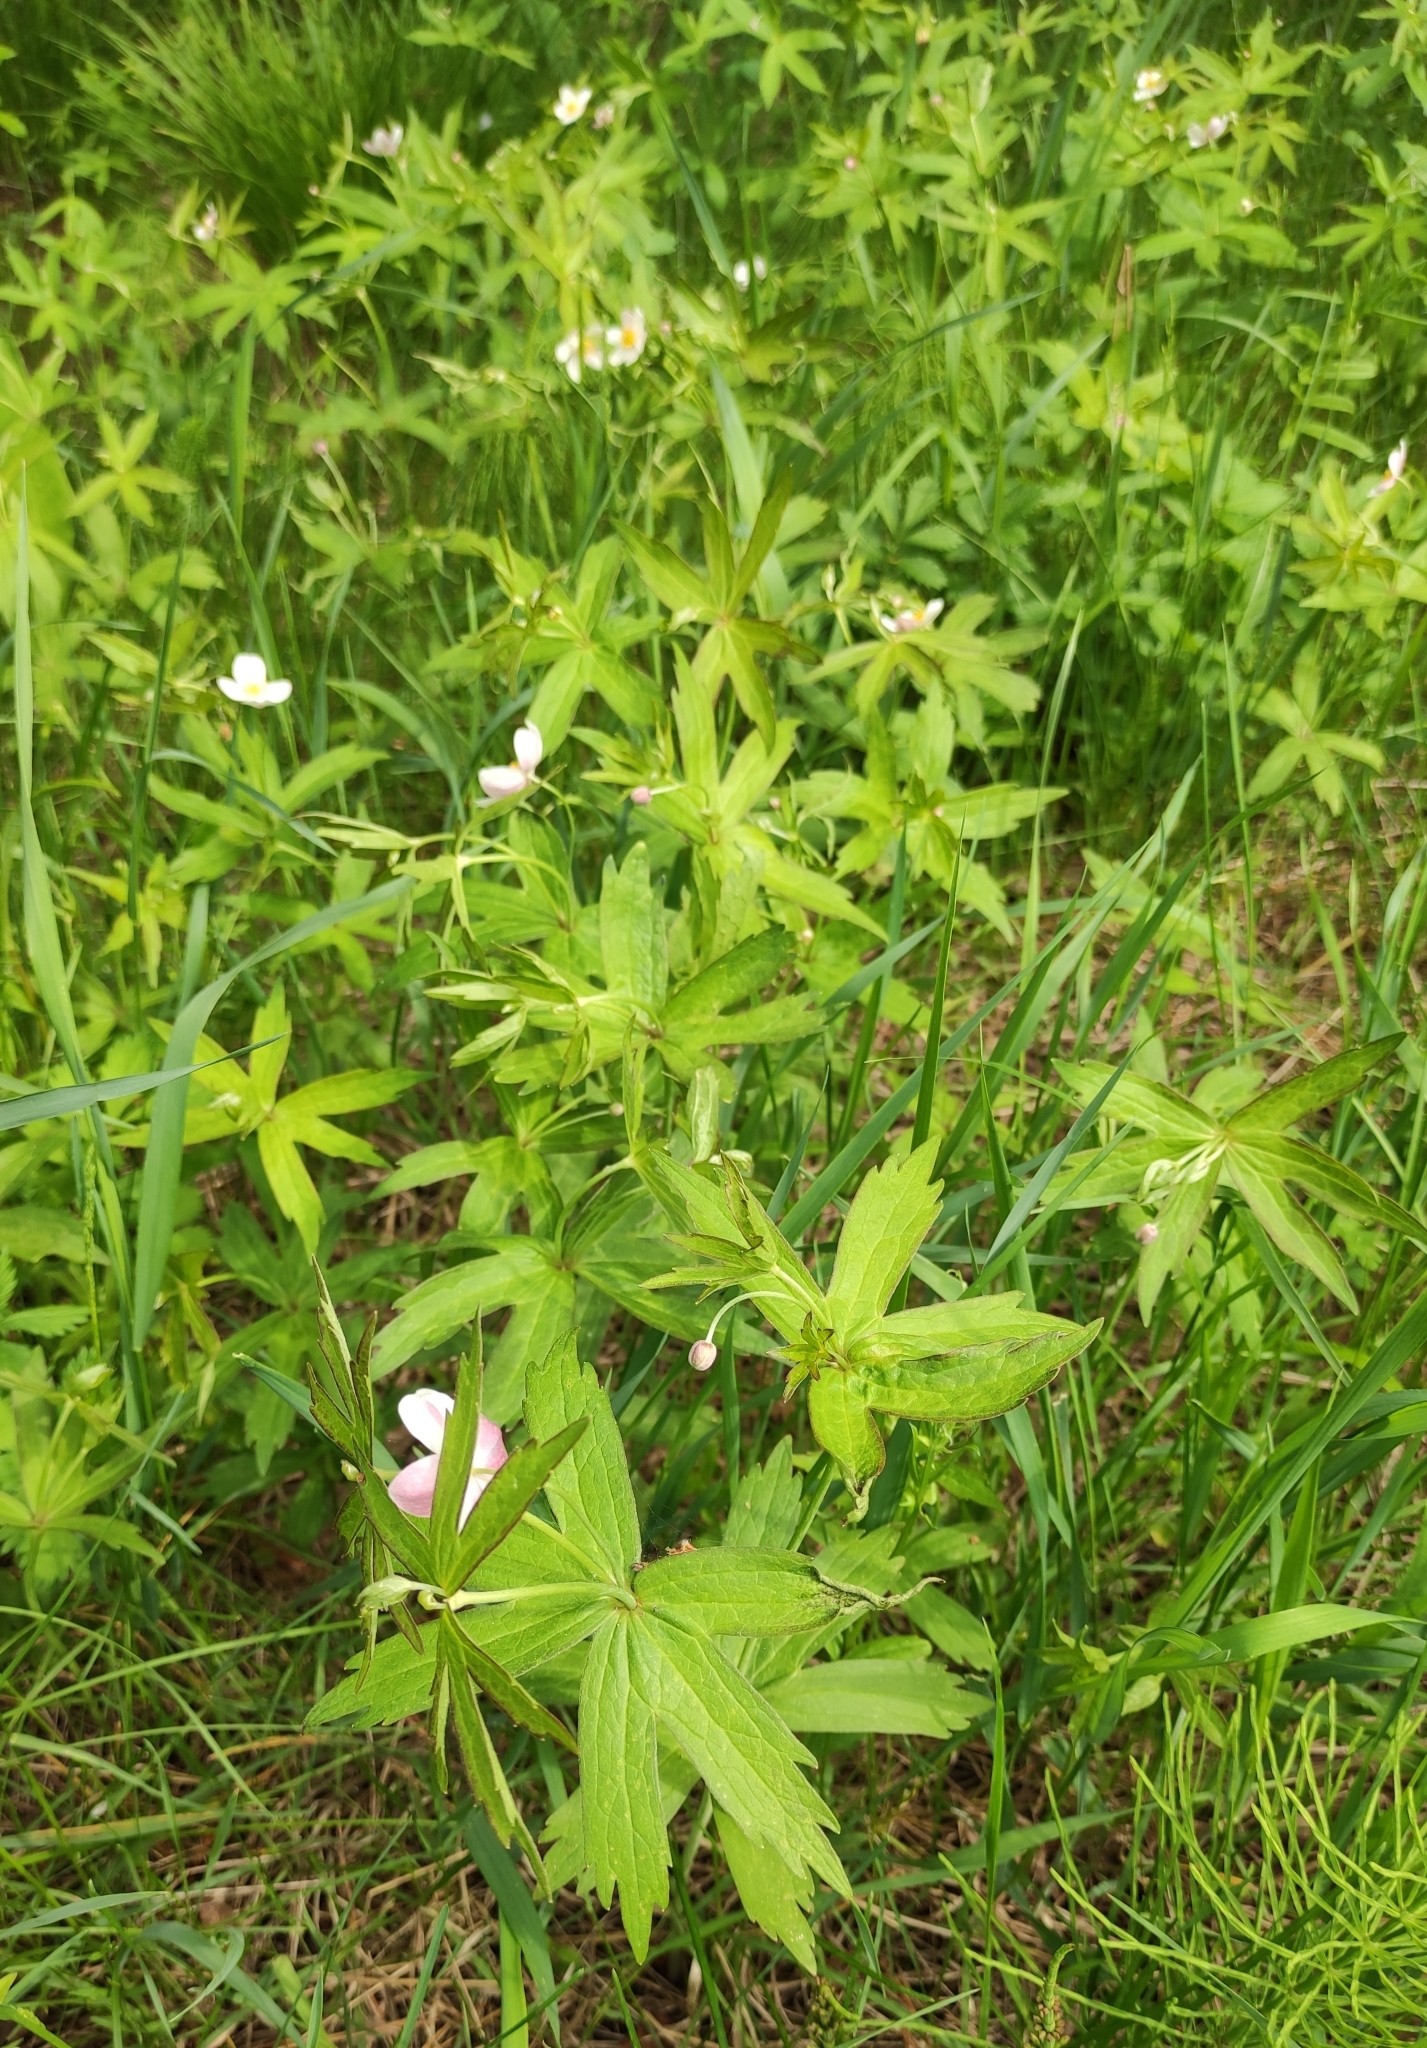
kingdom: Plantae
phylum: Tracheophyta
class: Magnoliopsida
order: Ranunculales
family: Ranunculaceae
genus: Anemonastrum
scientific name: Anemonastrum dichotomum
